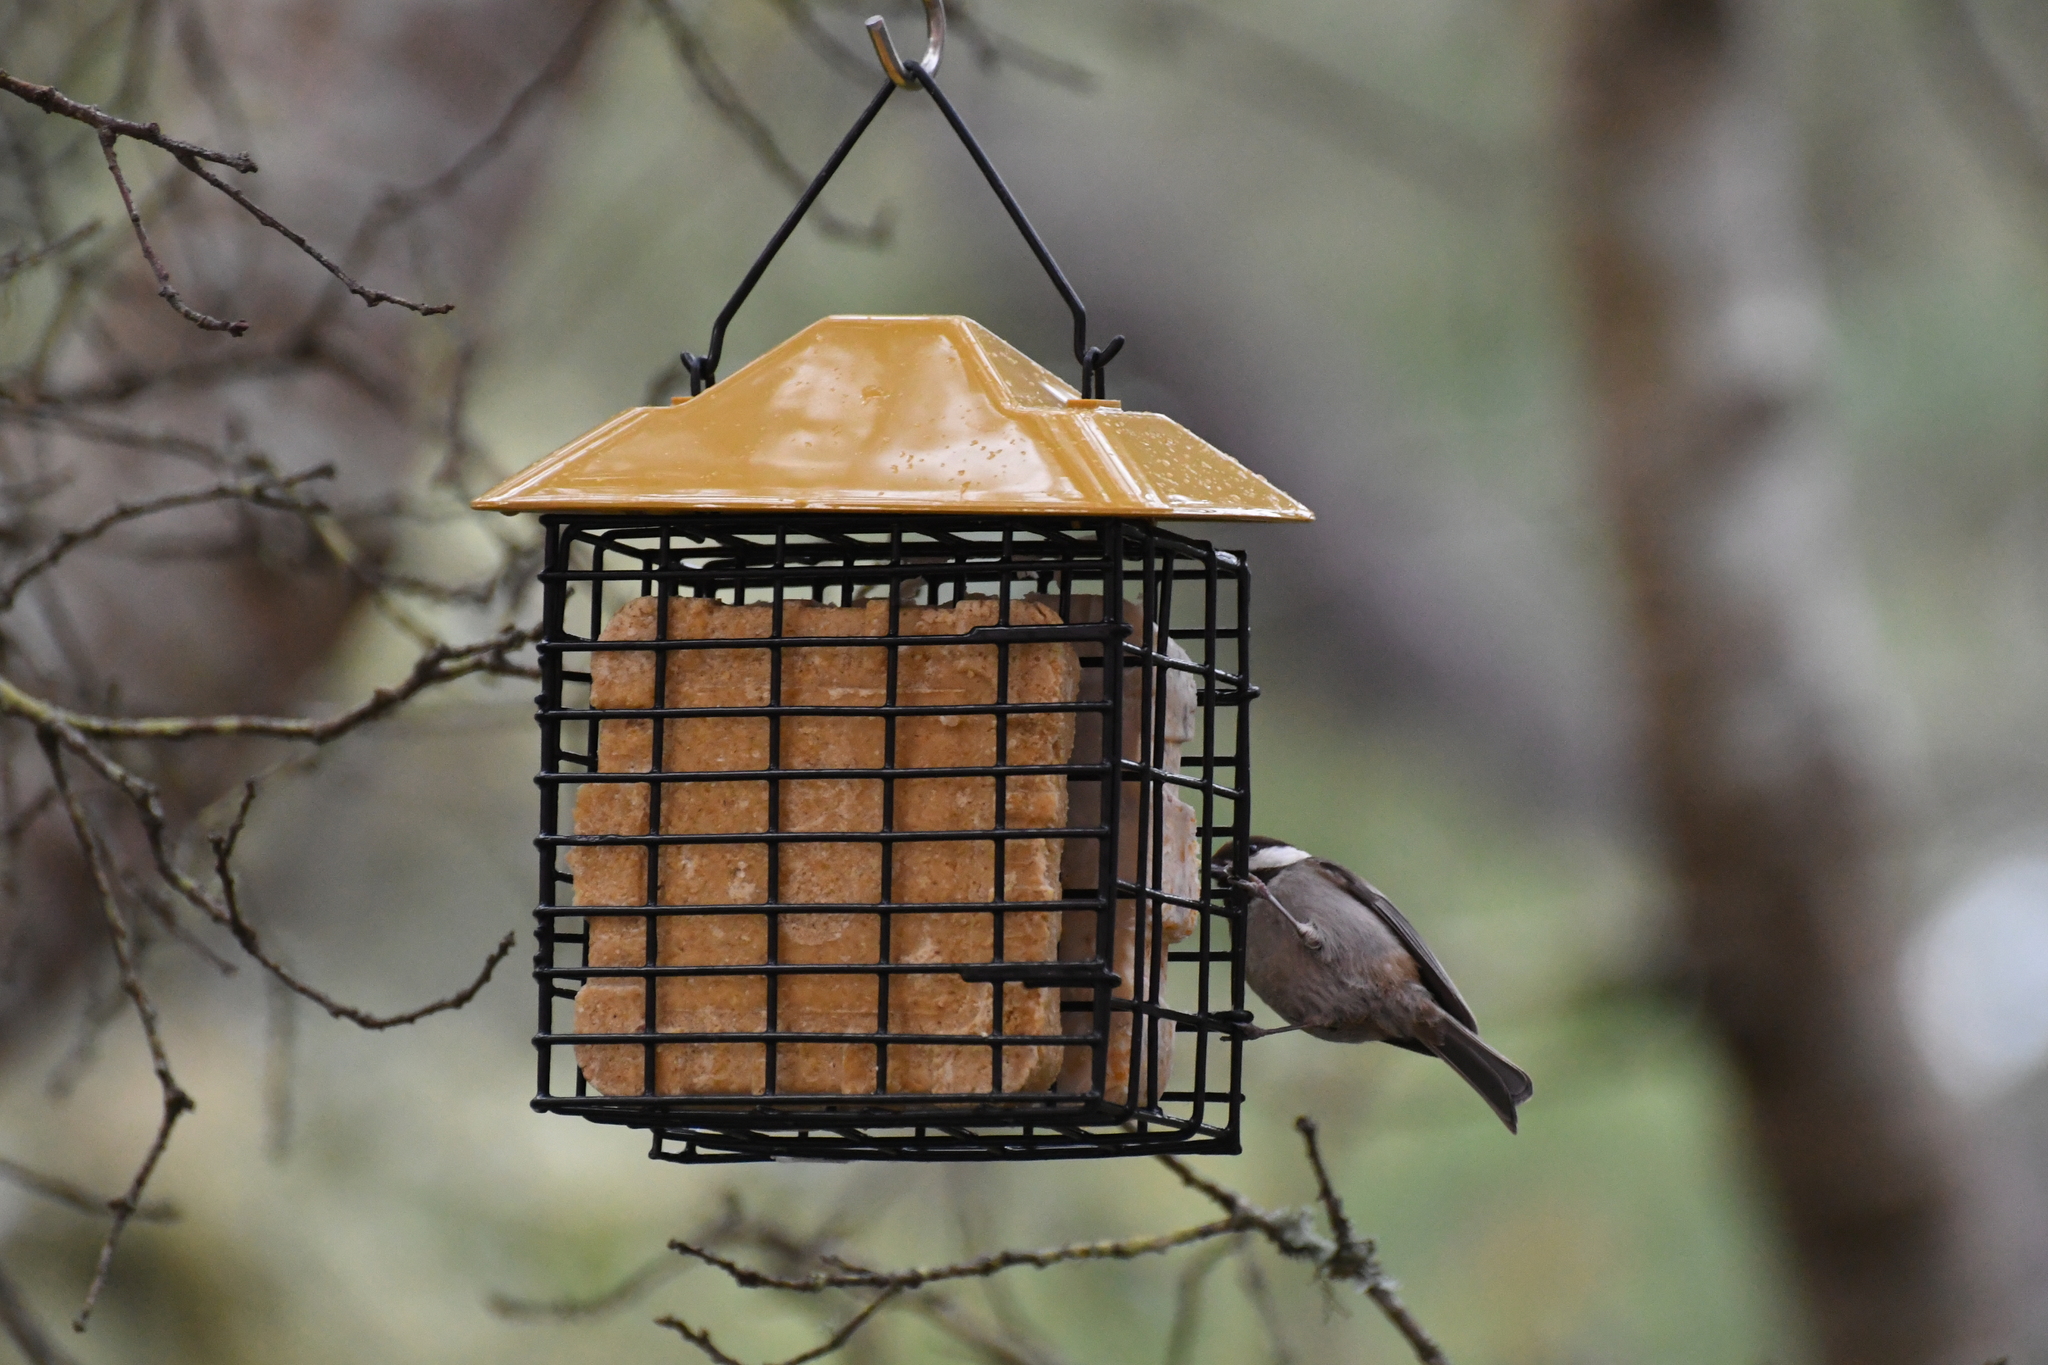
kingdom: Animalia
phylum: Chordata
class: Aves
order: Passeriformes
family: Paridae
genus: Poecile
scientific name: Poecile rufescens
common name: Chestnut-backed chickadee
